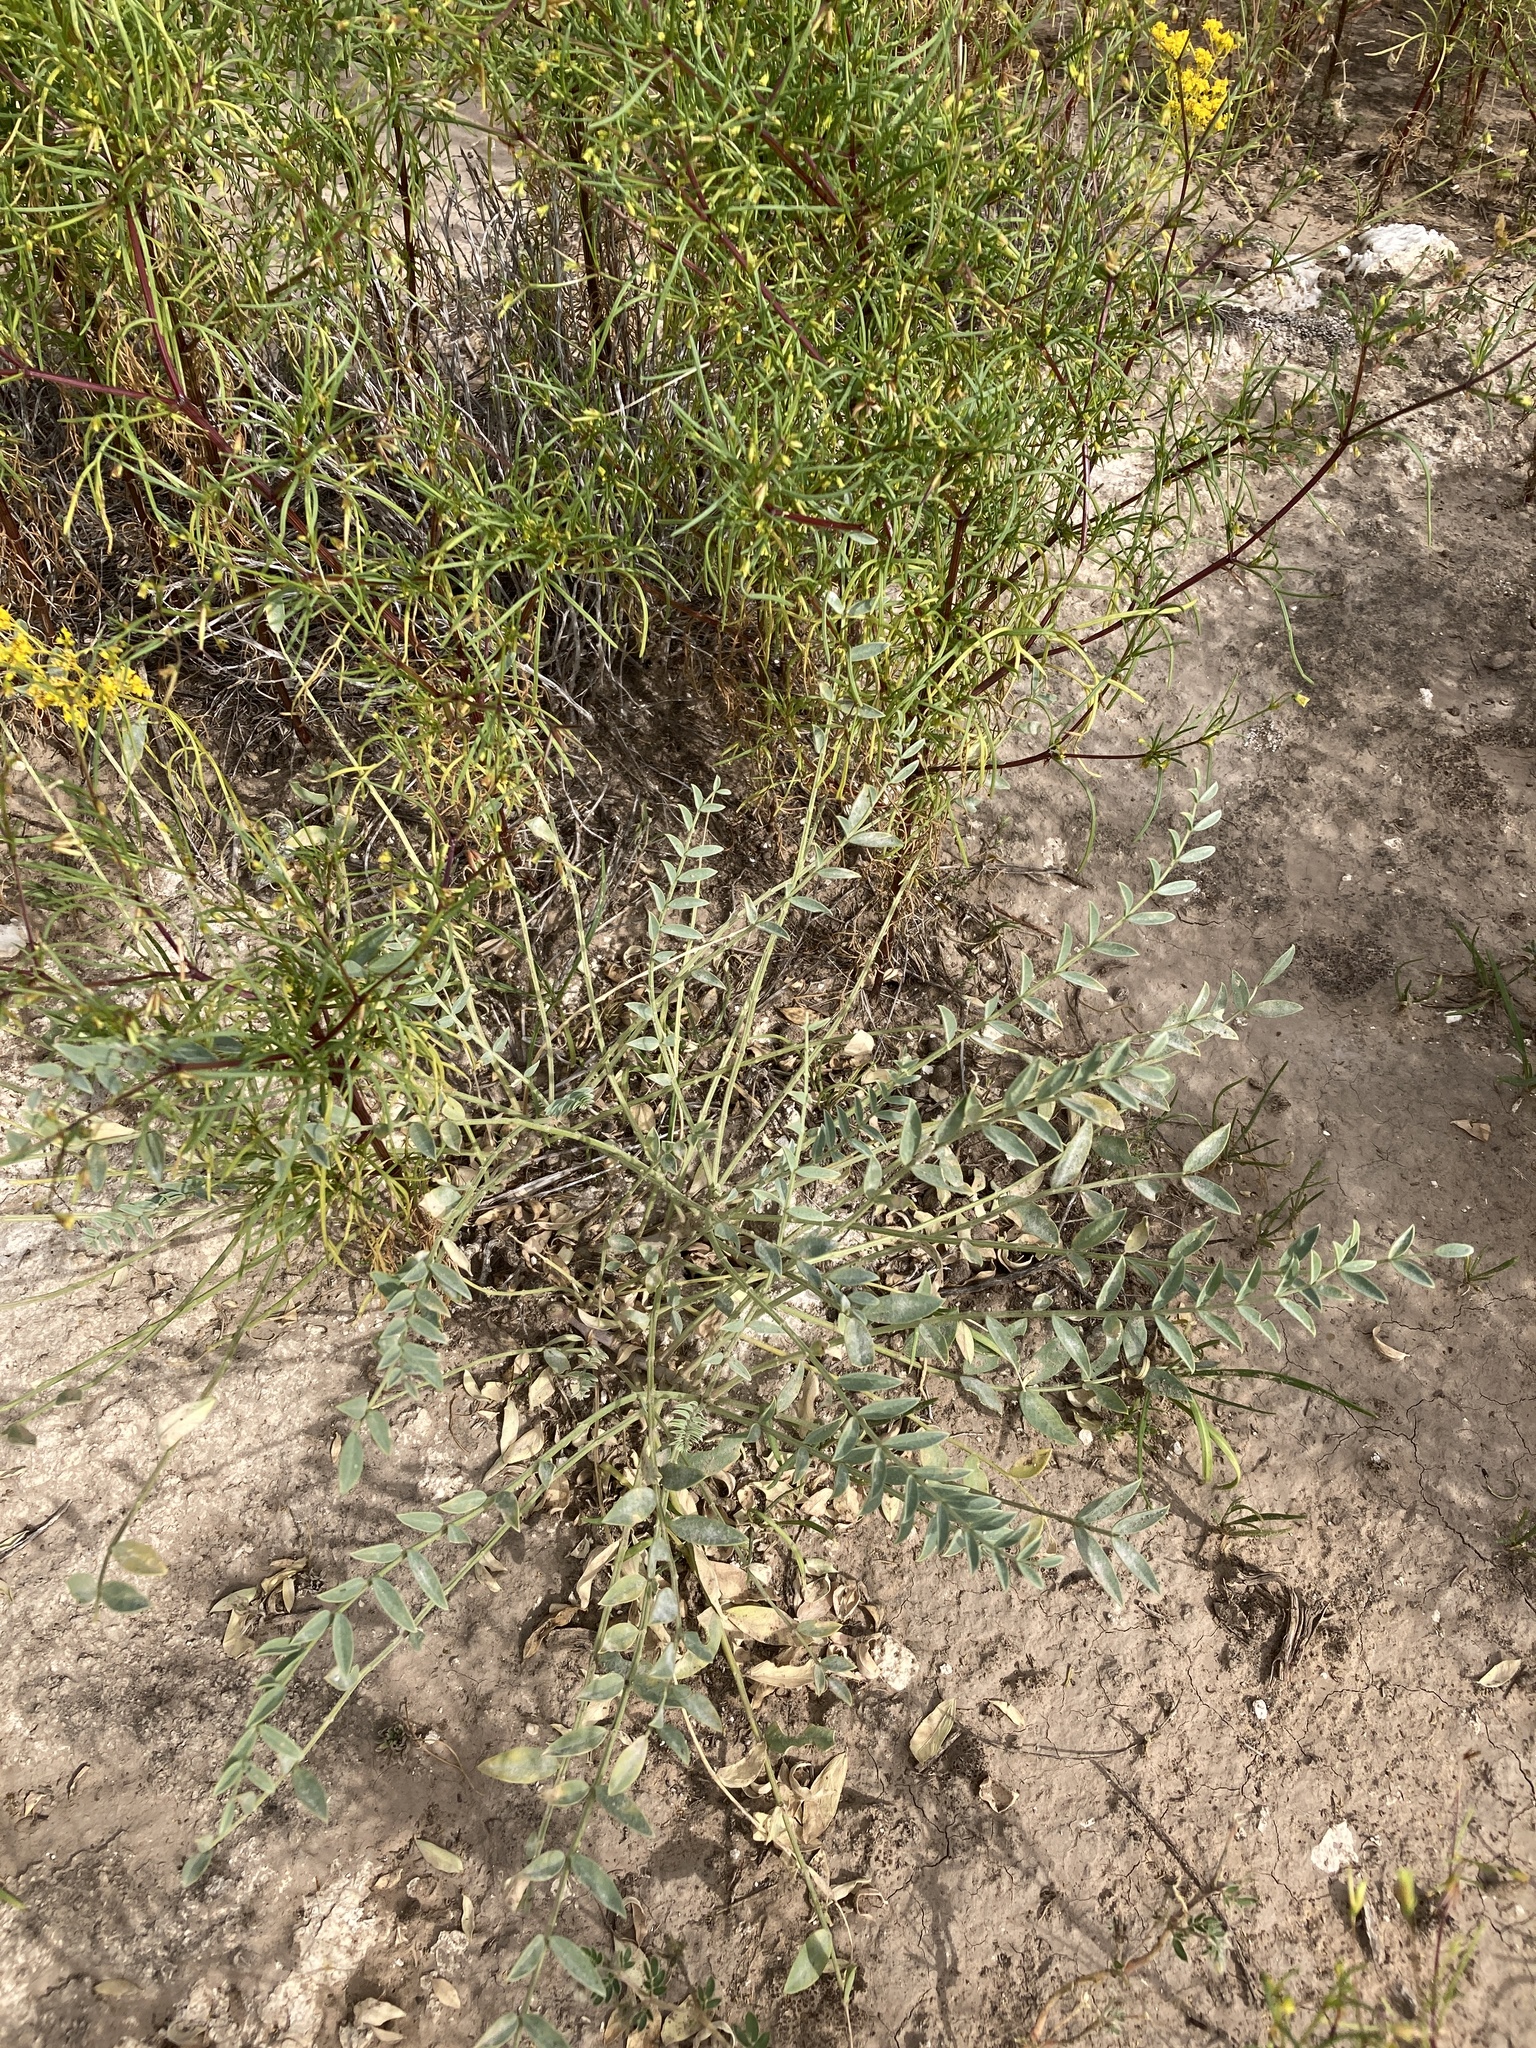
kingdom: Plantae
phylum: Tracheophyta
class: Magnoliopsida
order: Fabales
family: Fabaceae
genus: Astragalus
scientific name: Astragalus gypsodes
